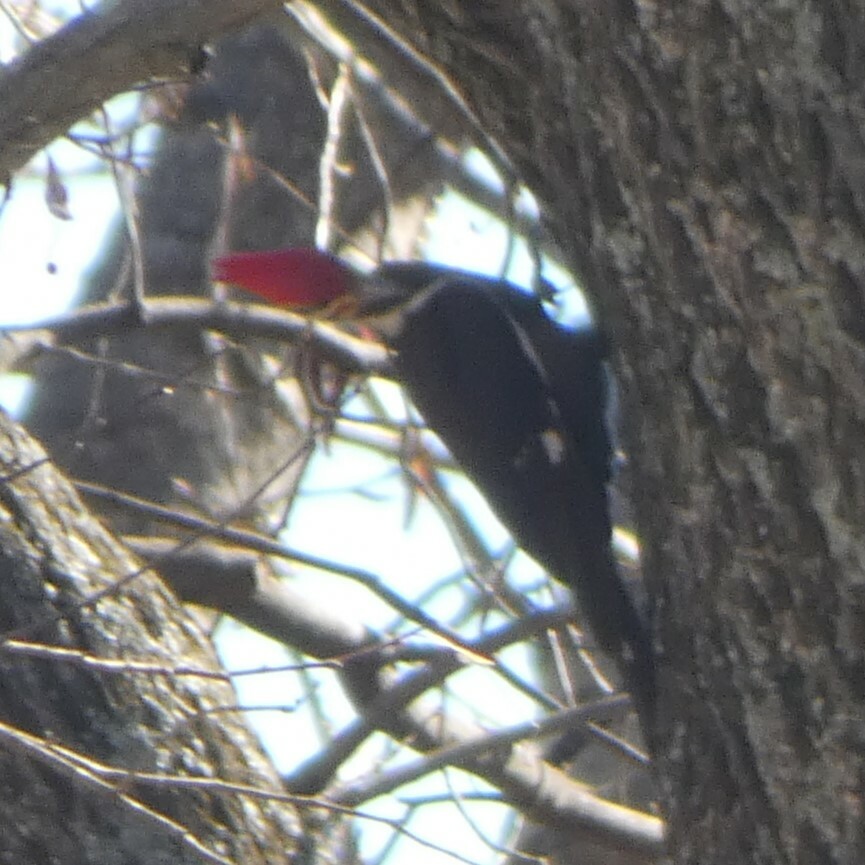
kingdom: Animalia
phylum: Chordata
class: Aves
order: Piciformes
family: Picidae
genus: Dryocopus
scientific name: Dryocopus pileatus
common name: Pileated woodpecker
